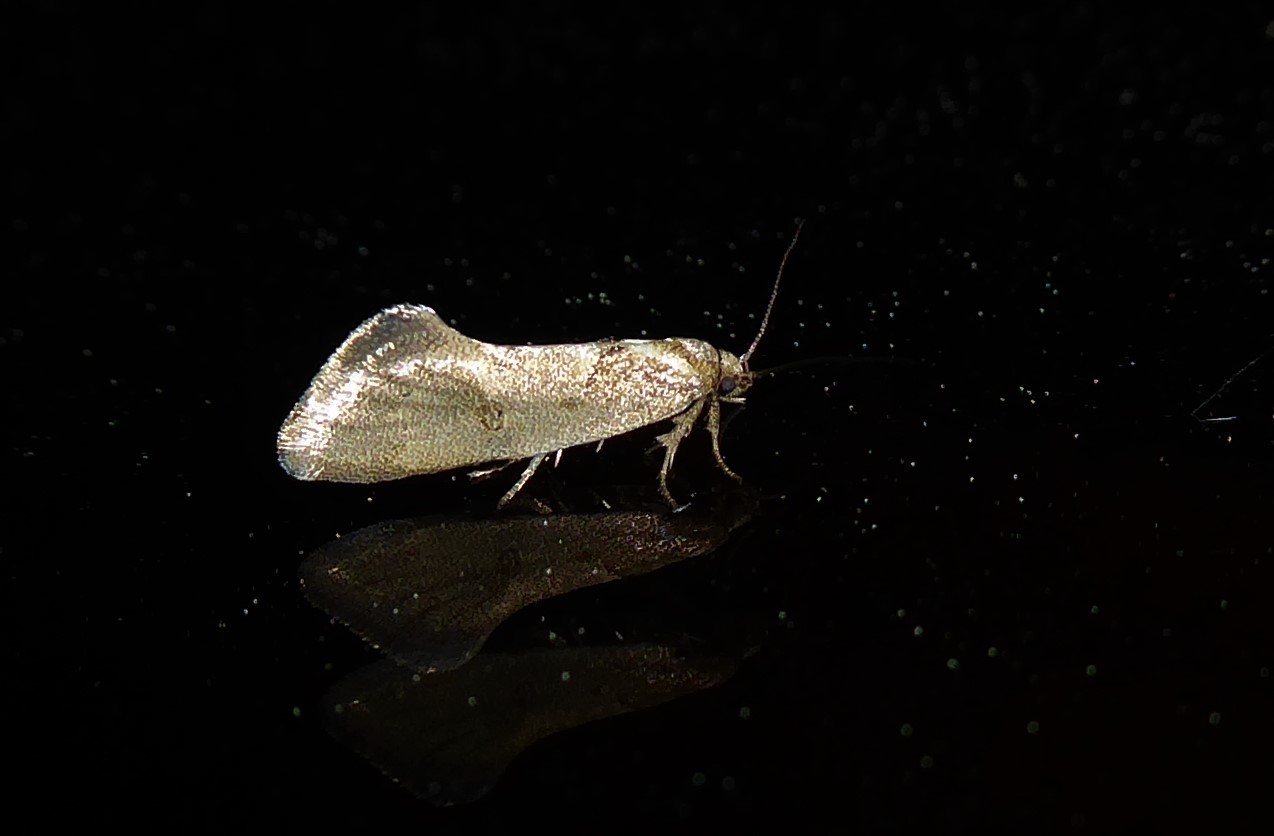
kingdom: Animalia
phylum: Arthropoda
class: Insecta
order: Lepidoptera
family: Oecophoridae
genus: Tingena
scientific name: Tingena brachyacma
